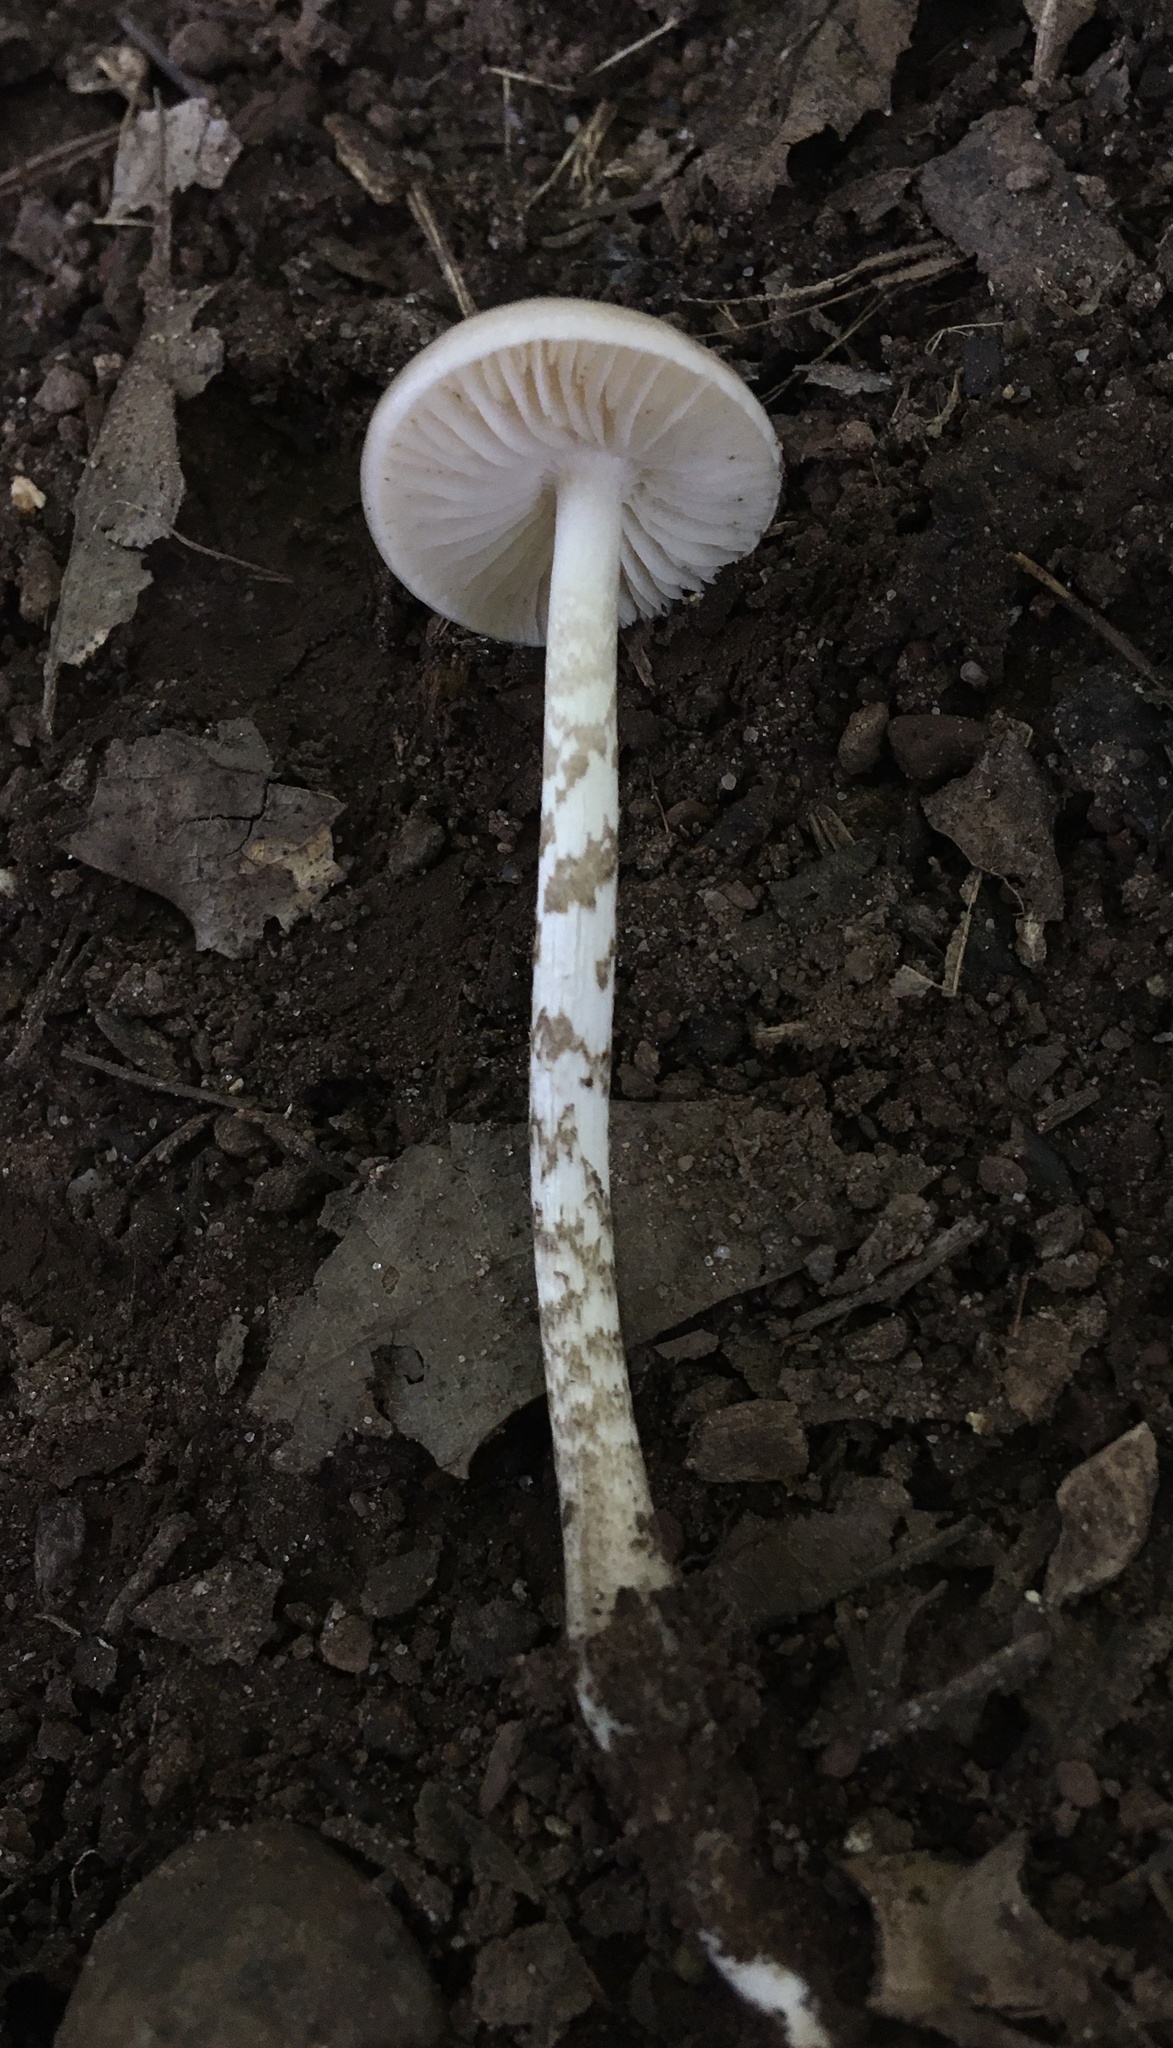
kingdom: Fungi
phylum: Basidiomycota
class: Agaricomycetes
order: Agaricales
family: Physalacriaceae
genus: Hymenopellis
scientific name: Hymenopellis furfuracea
